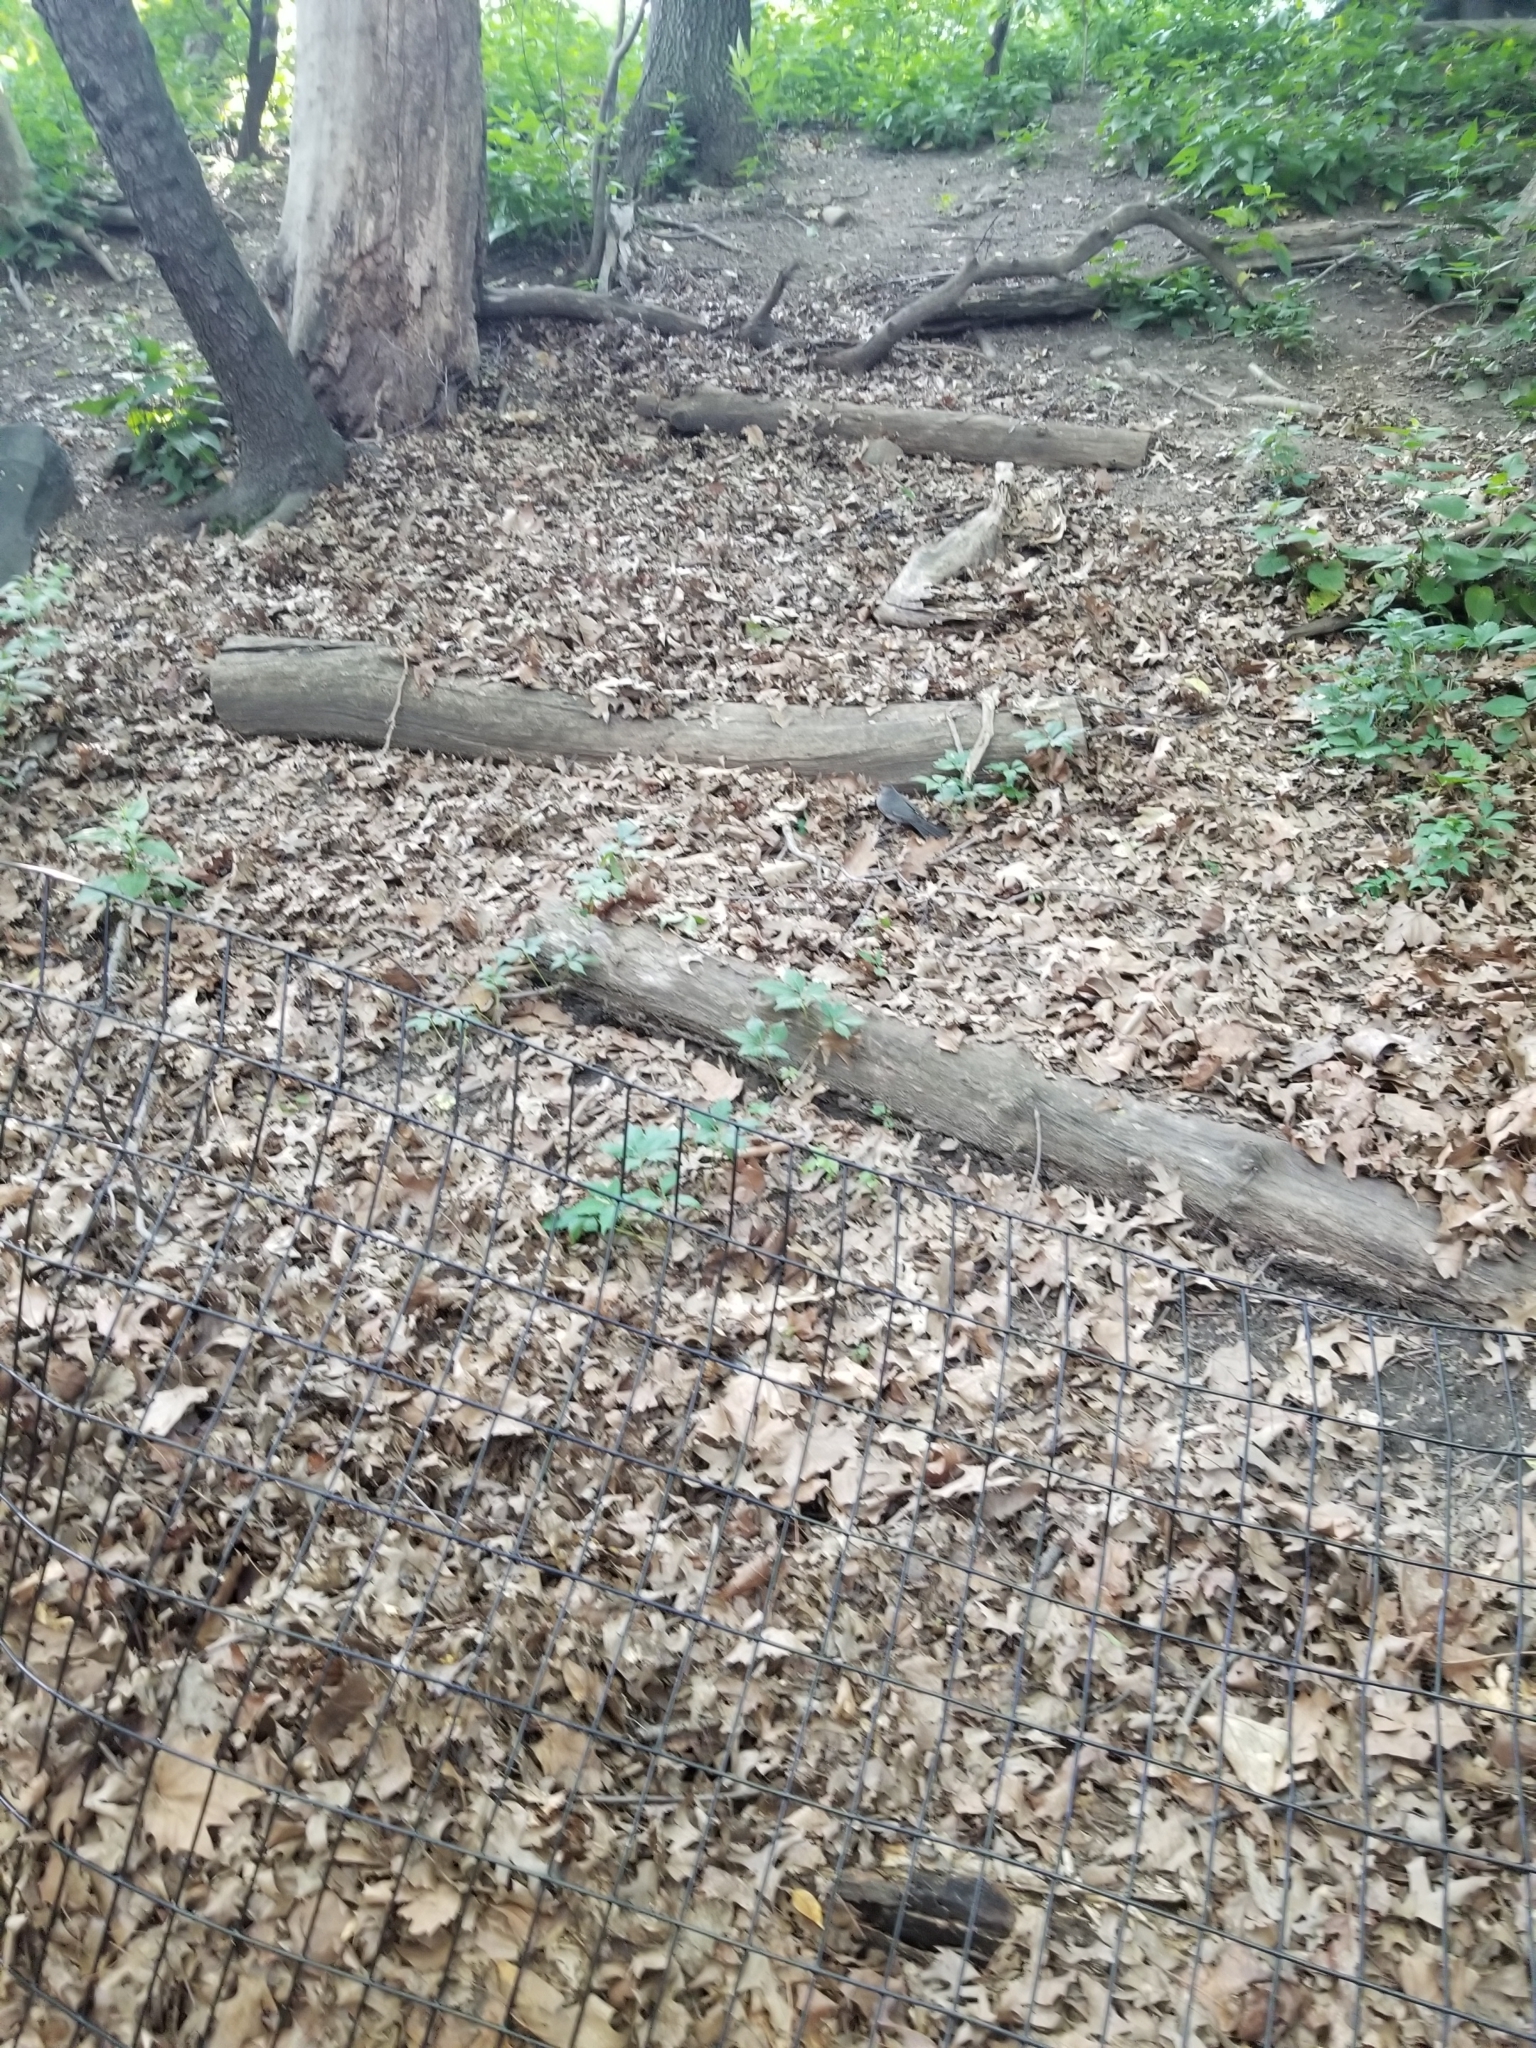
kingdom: Animalia
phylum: Chordata
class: Aves
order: Passeriformes
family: Mimidae
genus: Dumetella
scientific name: Dumetella carolinensis
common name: Gray catbird
